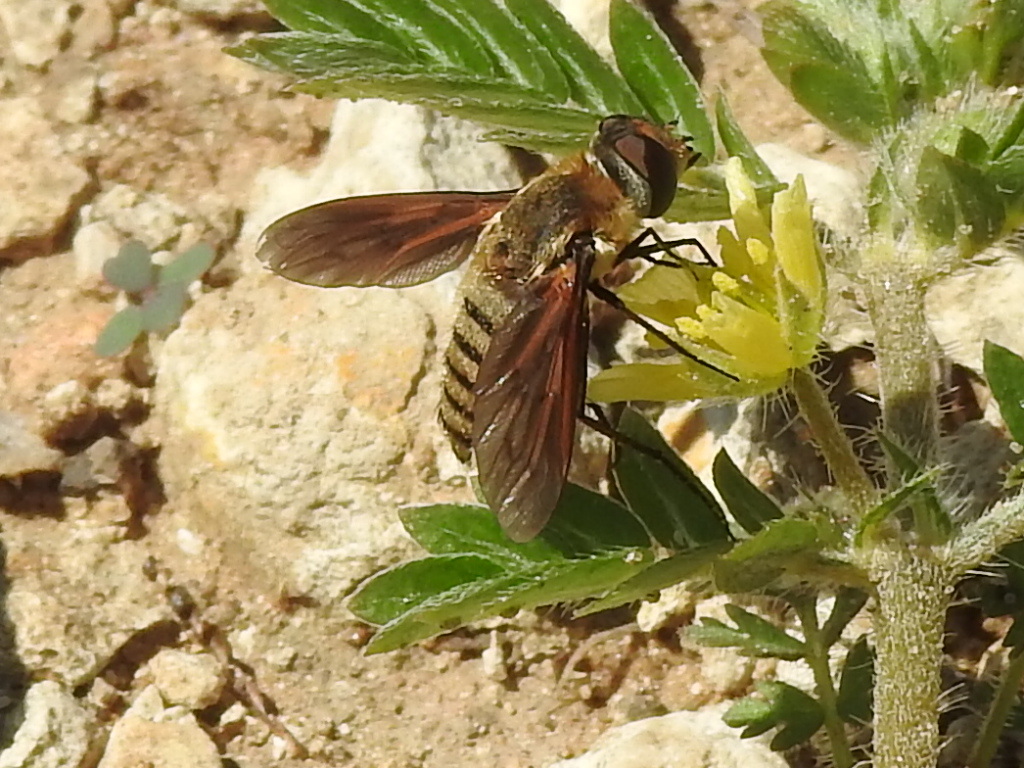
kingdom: Animalia
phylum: Arthropoda
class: Insecta
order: Diptera
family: Bombyliidae
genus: Poecilanthrax
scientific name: Poecilanthrax lucifer
